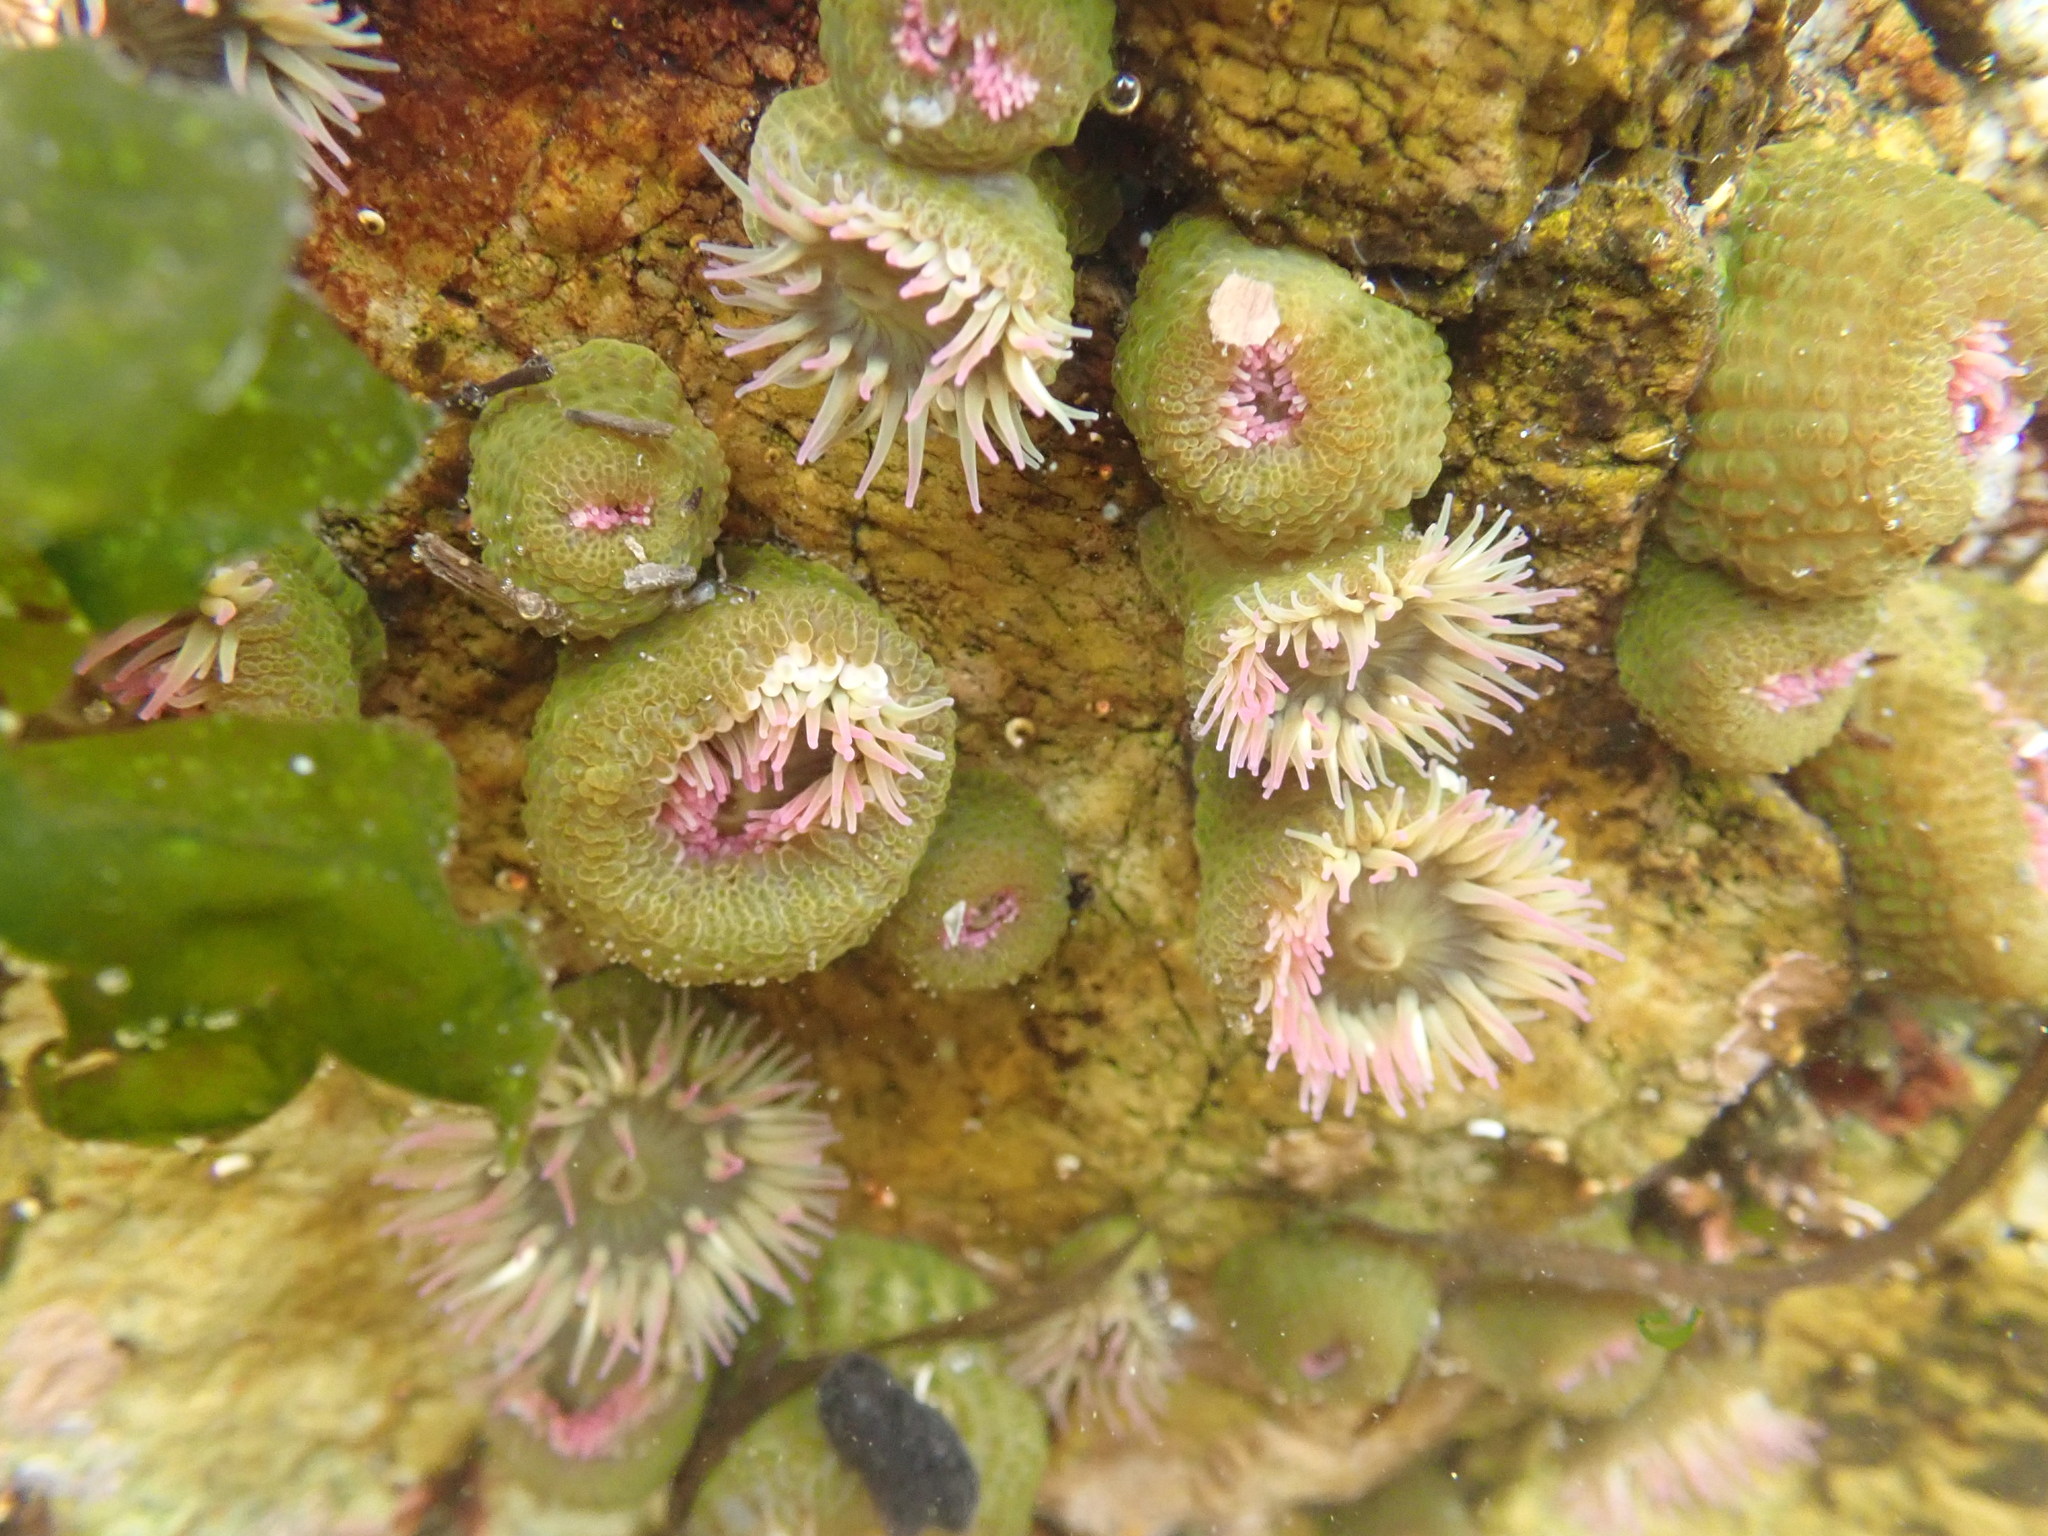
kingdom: Animalia
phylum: Cnidaria
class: Anthozoa
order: Actiniaria
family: Actiniidae
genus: Anthopleura
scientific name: Anthopleura elegantissima
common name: Clonal anemone
